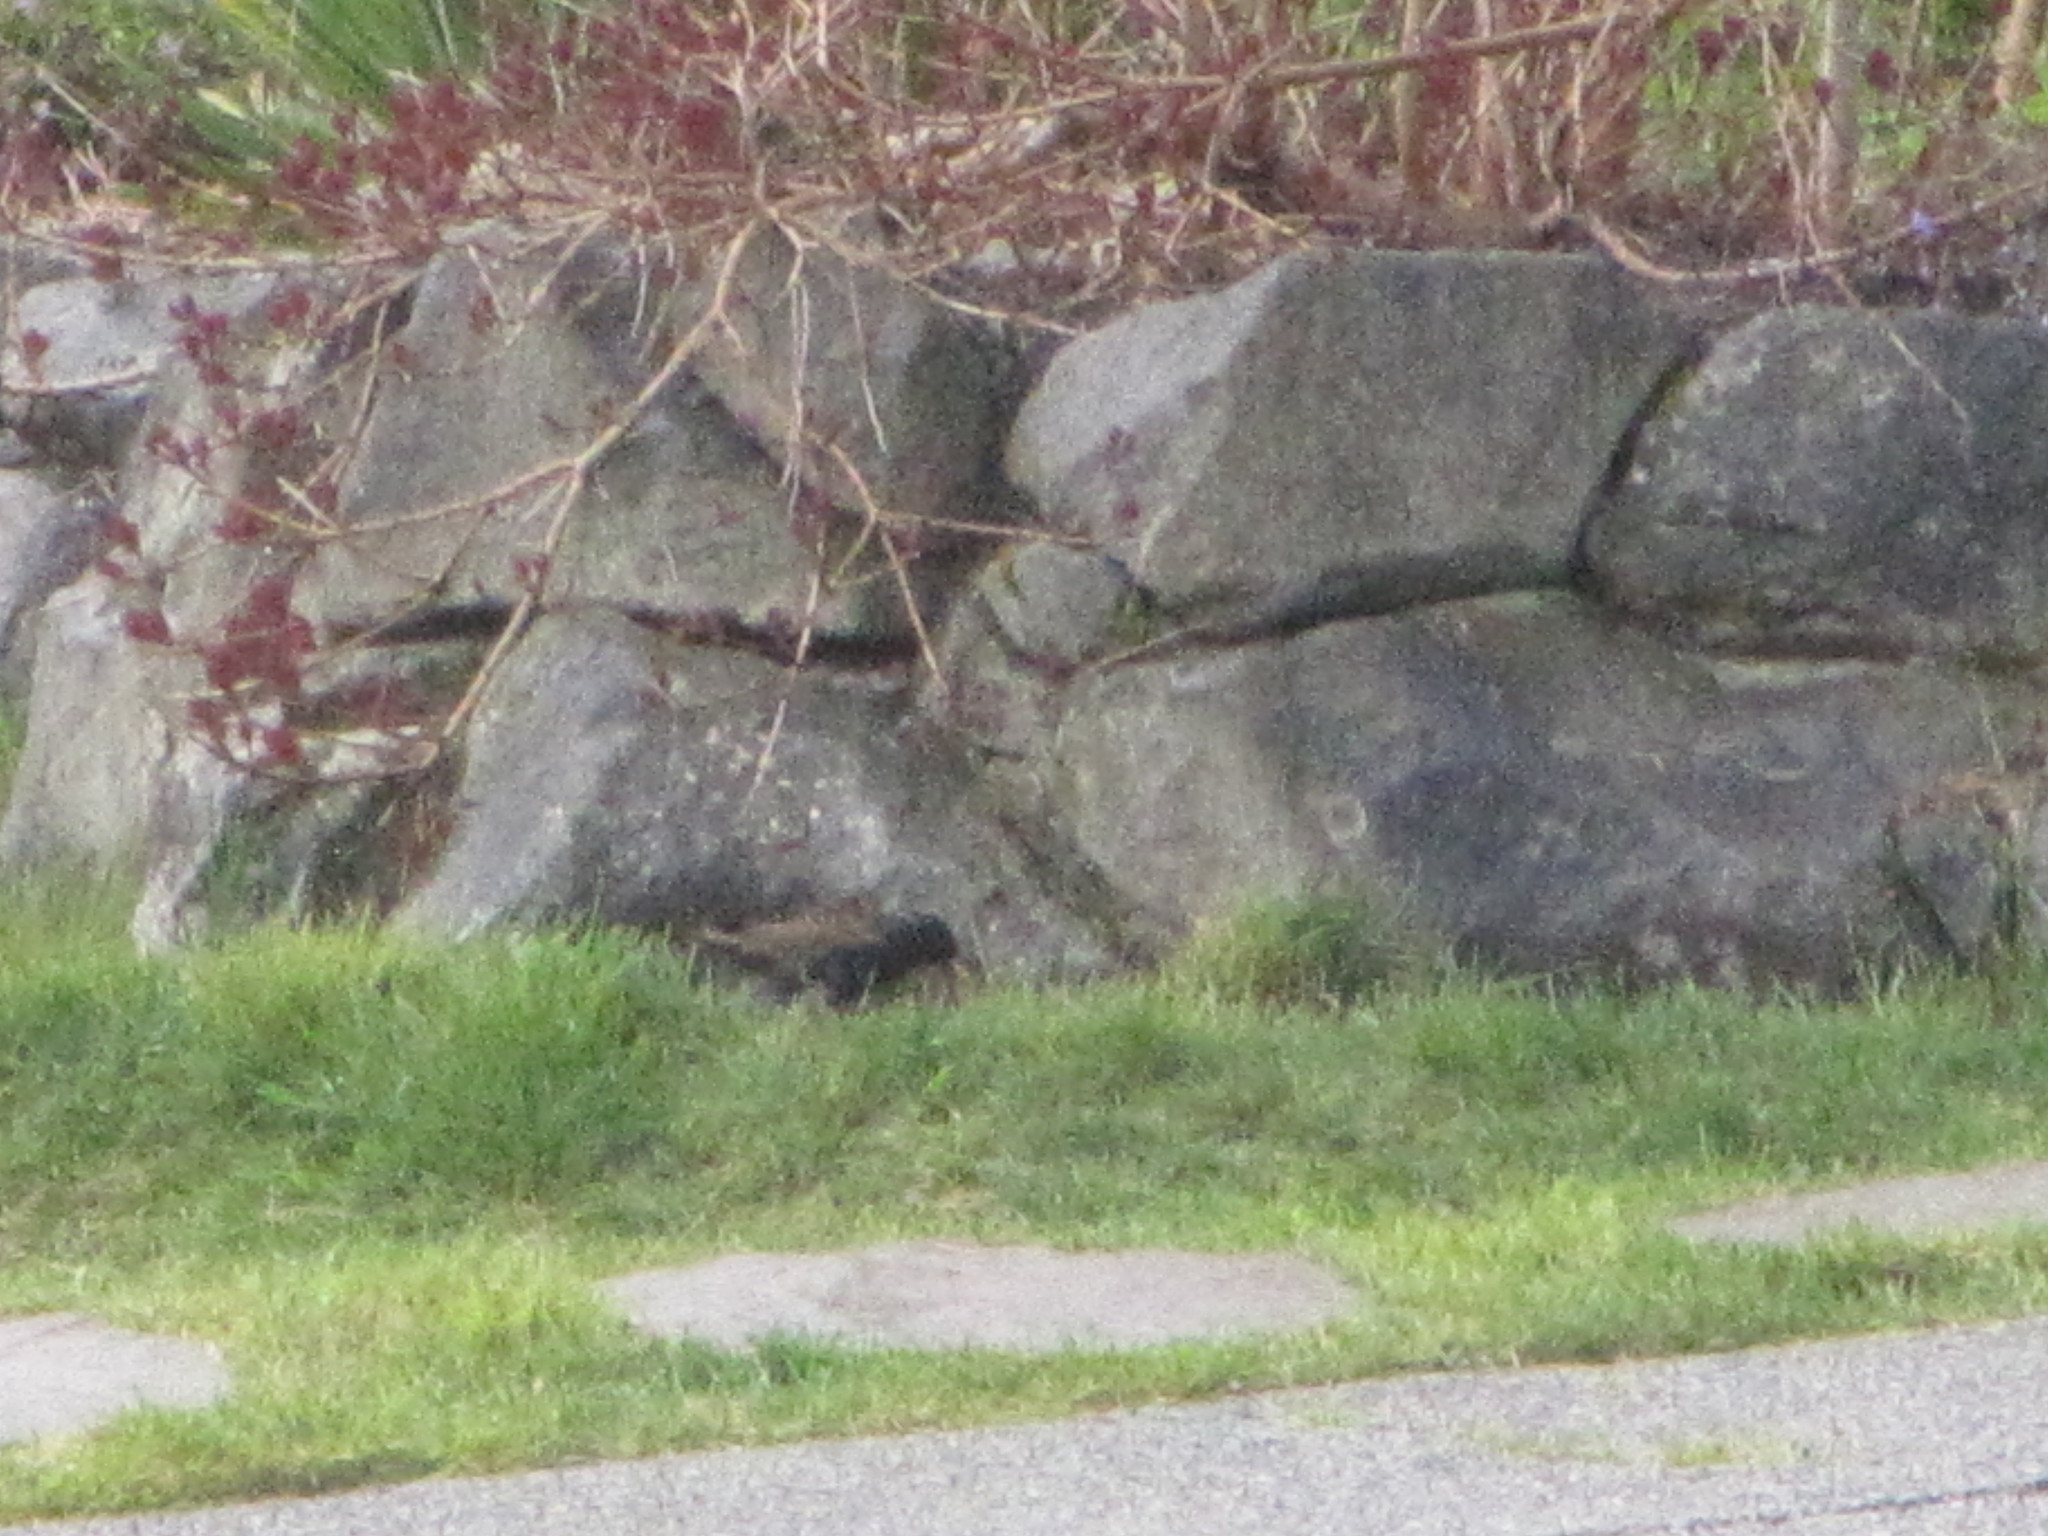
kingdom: Animalia
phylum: Chordata
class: Aves
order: Passeriformes
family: Sturnidae
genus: Sturnus
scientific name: Sturnus vulgaris
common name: Common starling
